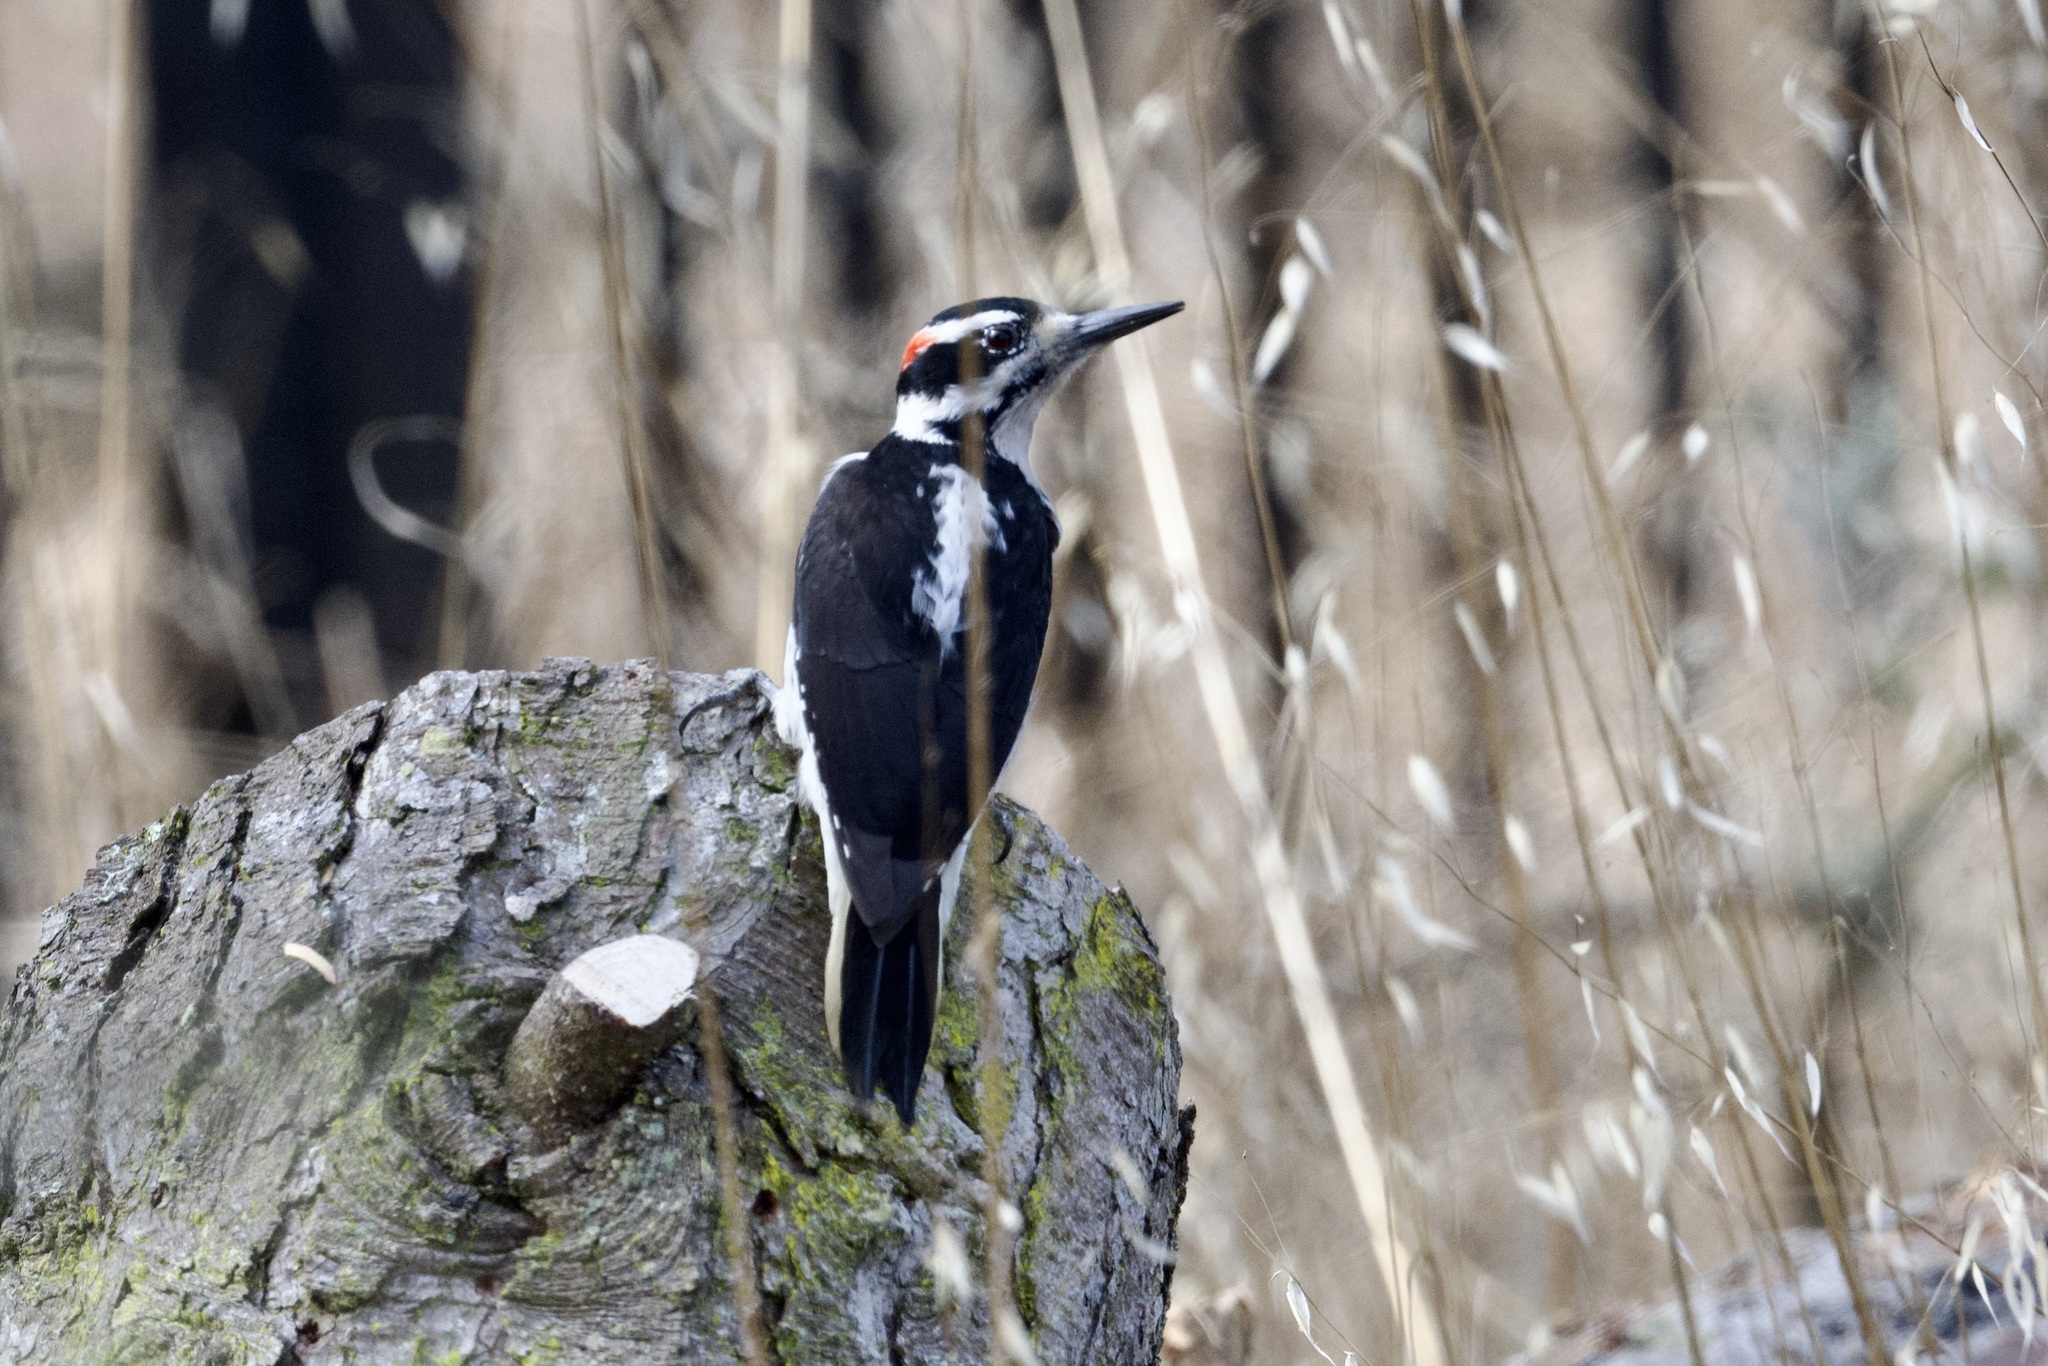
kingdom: Animalia
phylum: Chordata
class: Aves
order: Piciformes
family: Picidae
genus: Leuconotopicus
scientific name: Leuconotopicus villosus
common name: Hairy woodpecker
